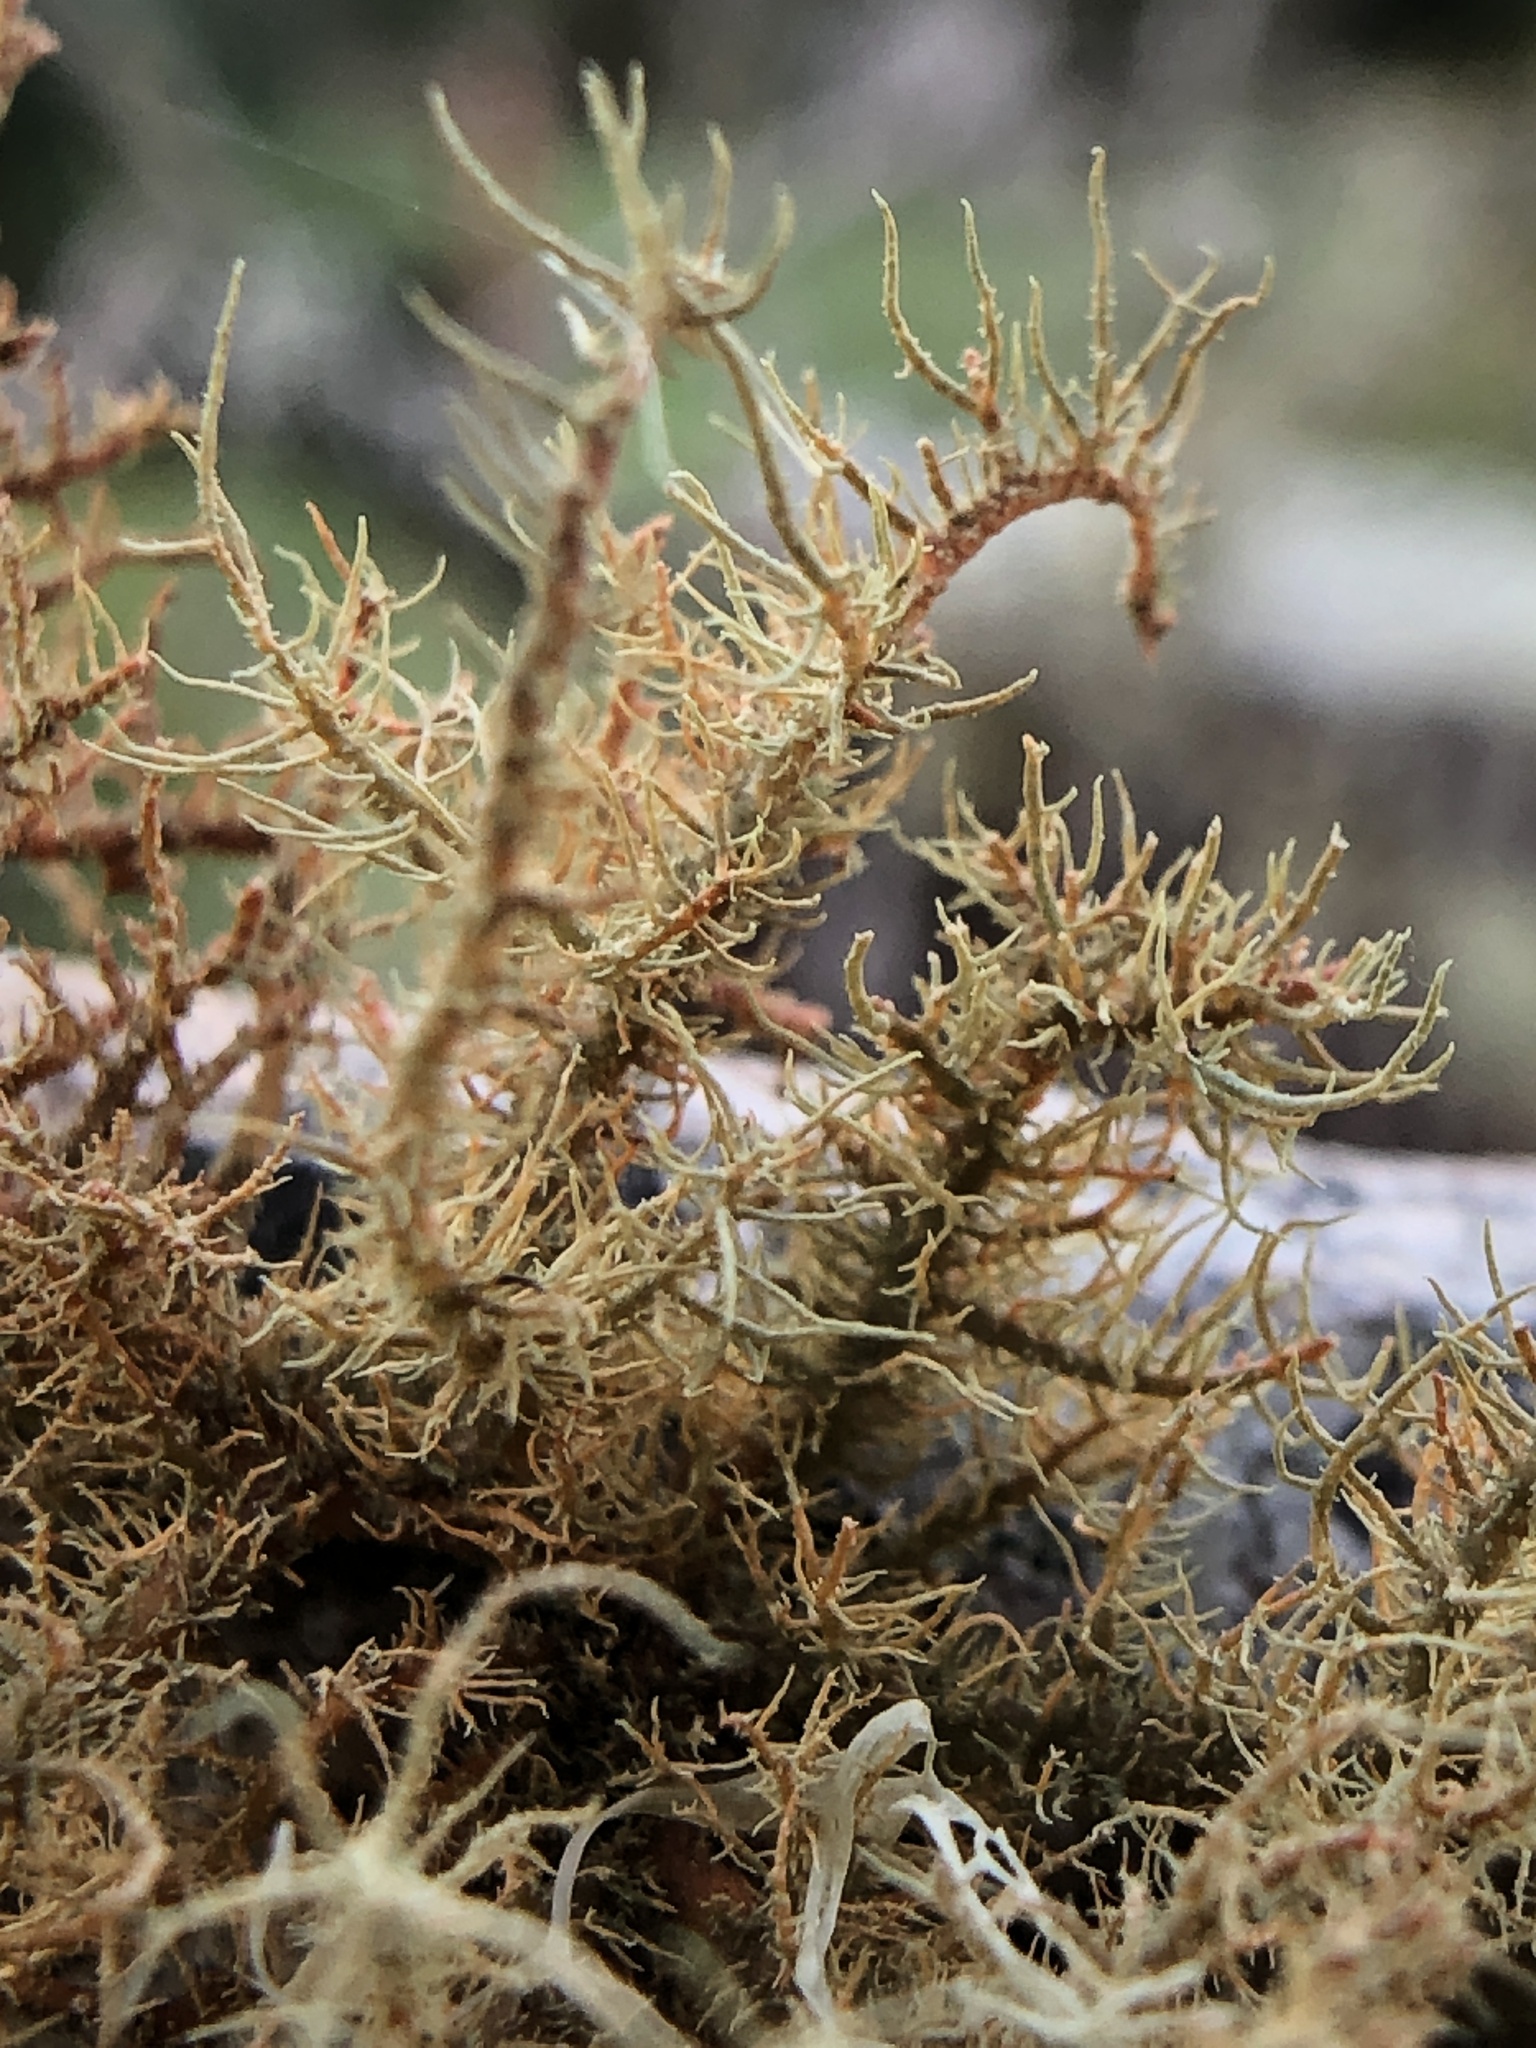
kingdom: Fungi
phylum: Ascomycota
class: Lecanoromycetes
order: Lecanorales
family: Parmeliaceae
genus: Usnea
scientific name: Usnea rubicunda
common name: Red beard lichen
